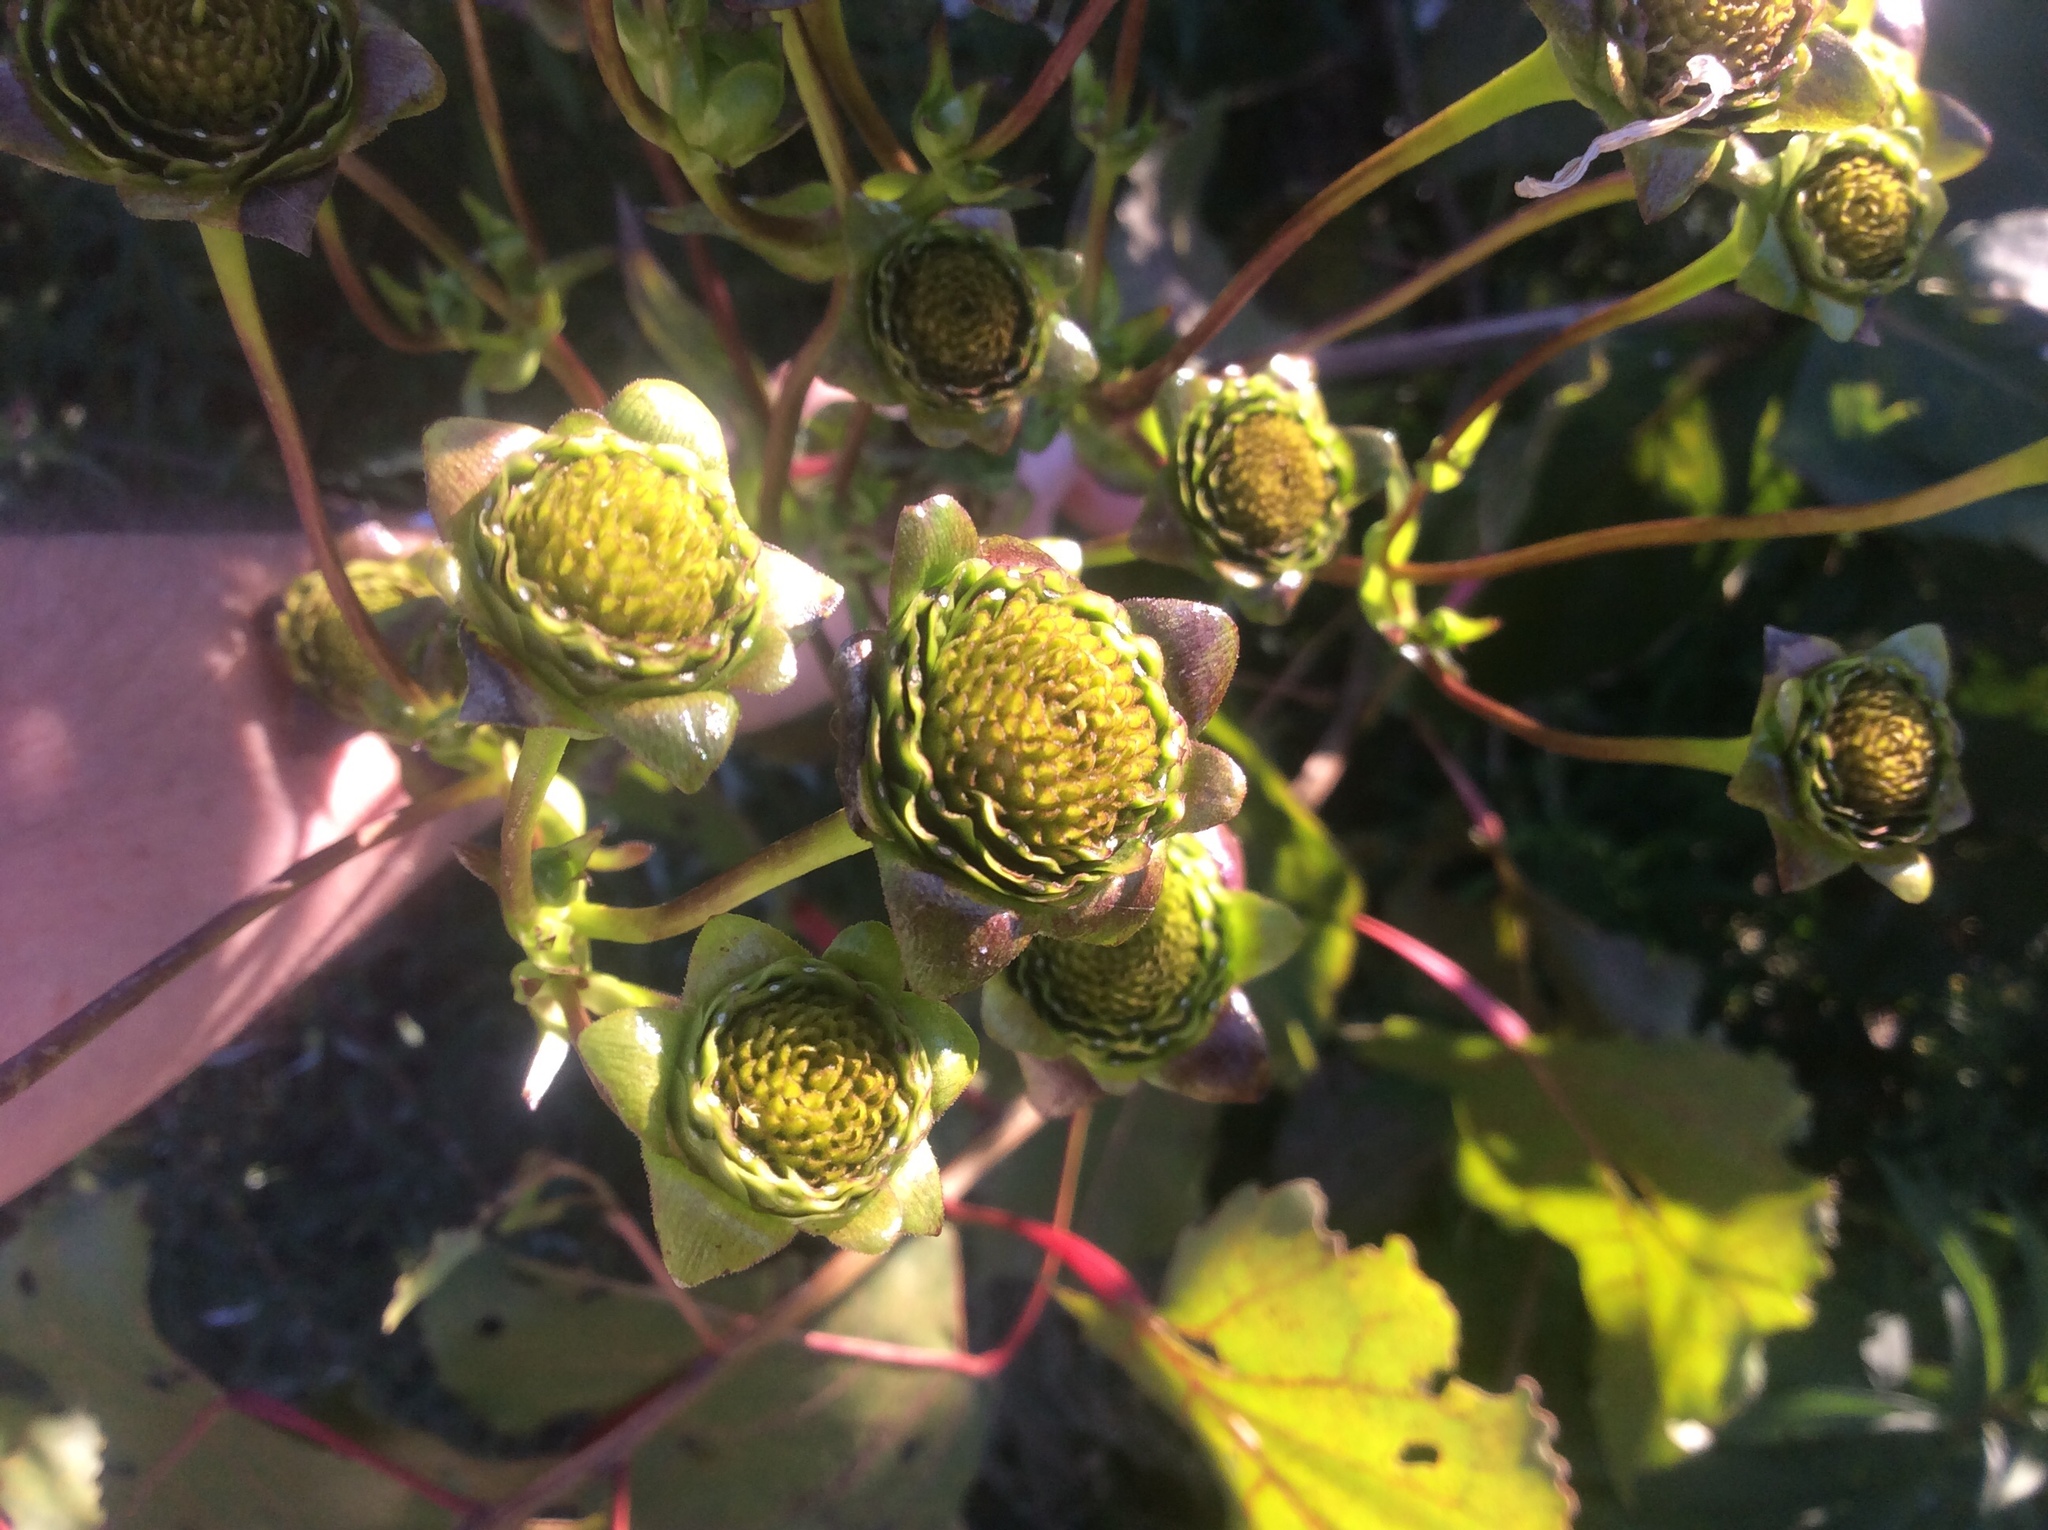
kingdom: Plantae
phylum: Tracheophyta
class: Magnoliopsida
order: Asterales
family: Asteraceae
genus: Silphium
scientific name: Silphium perfoliatum
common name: Cup-plant
